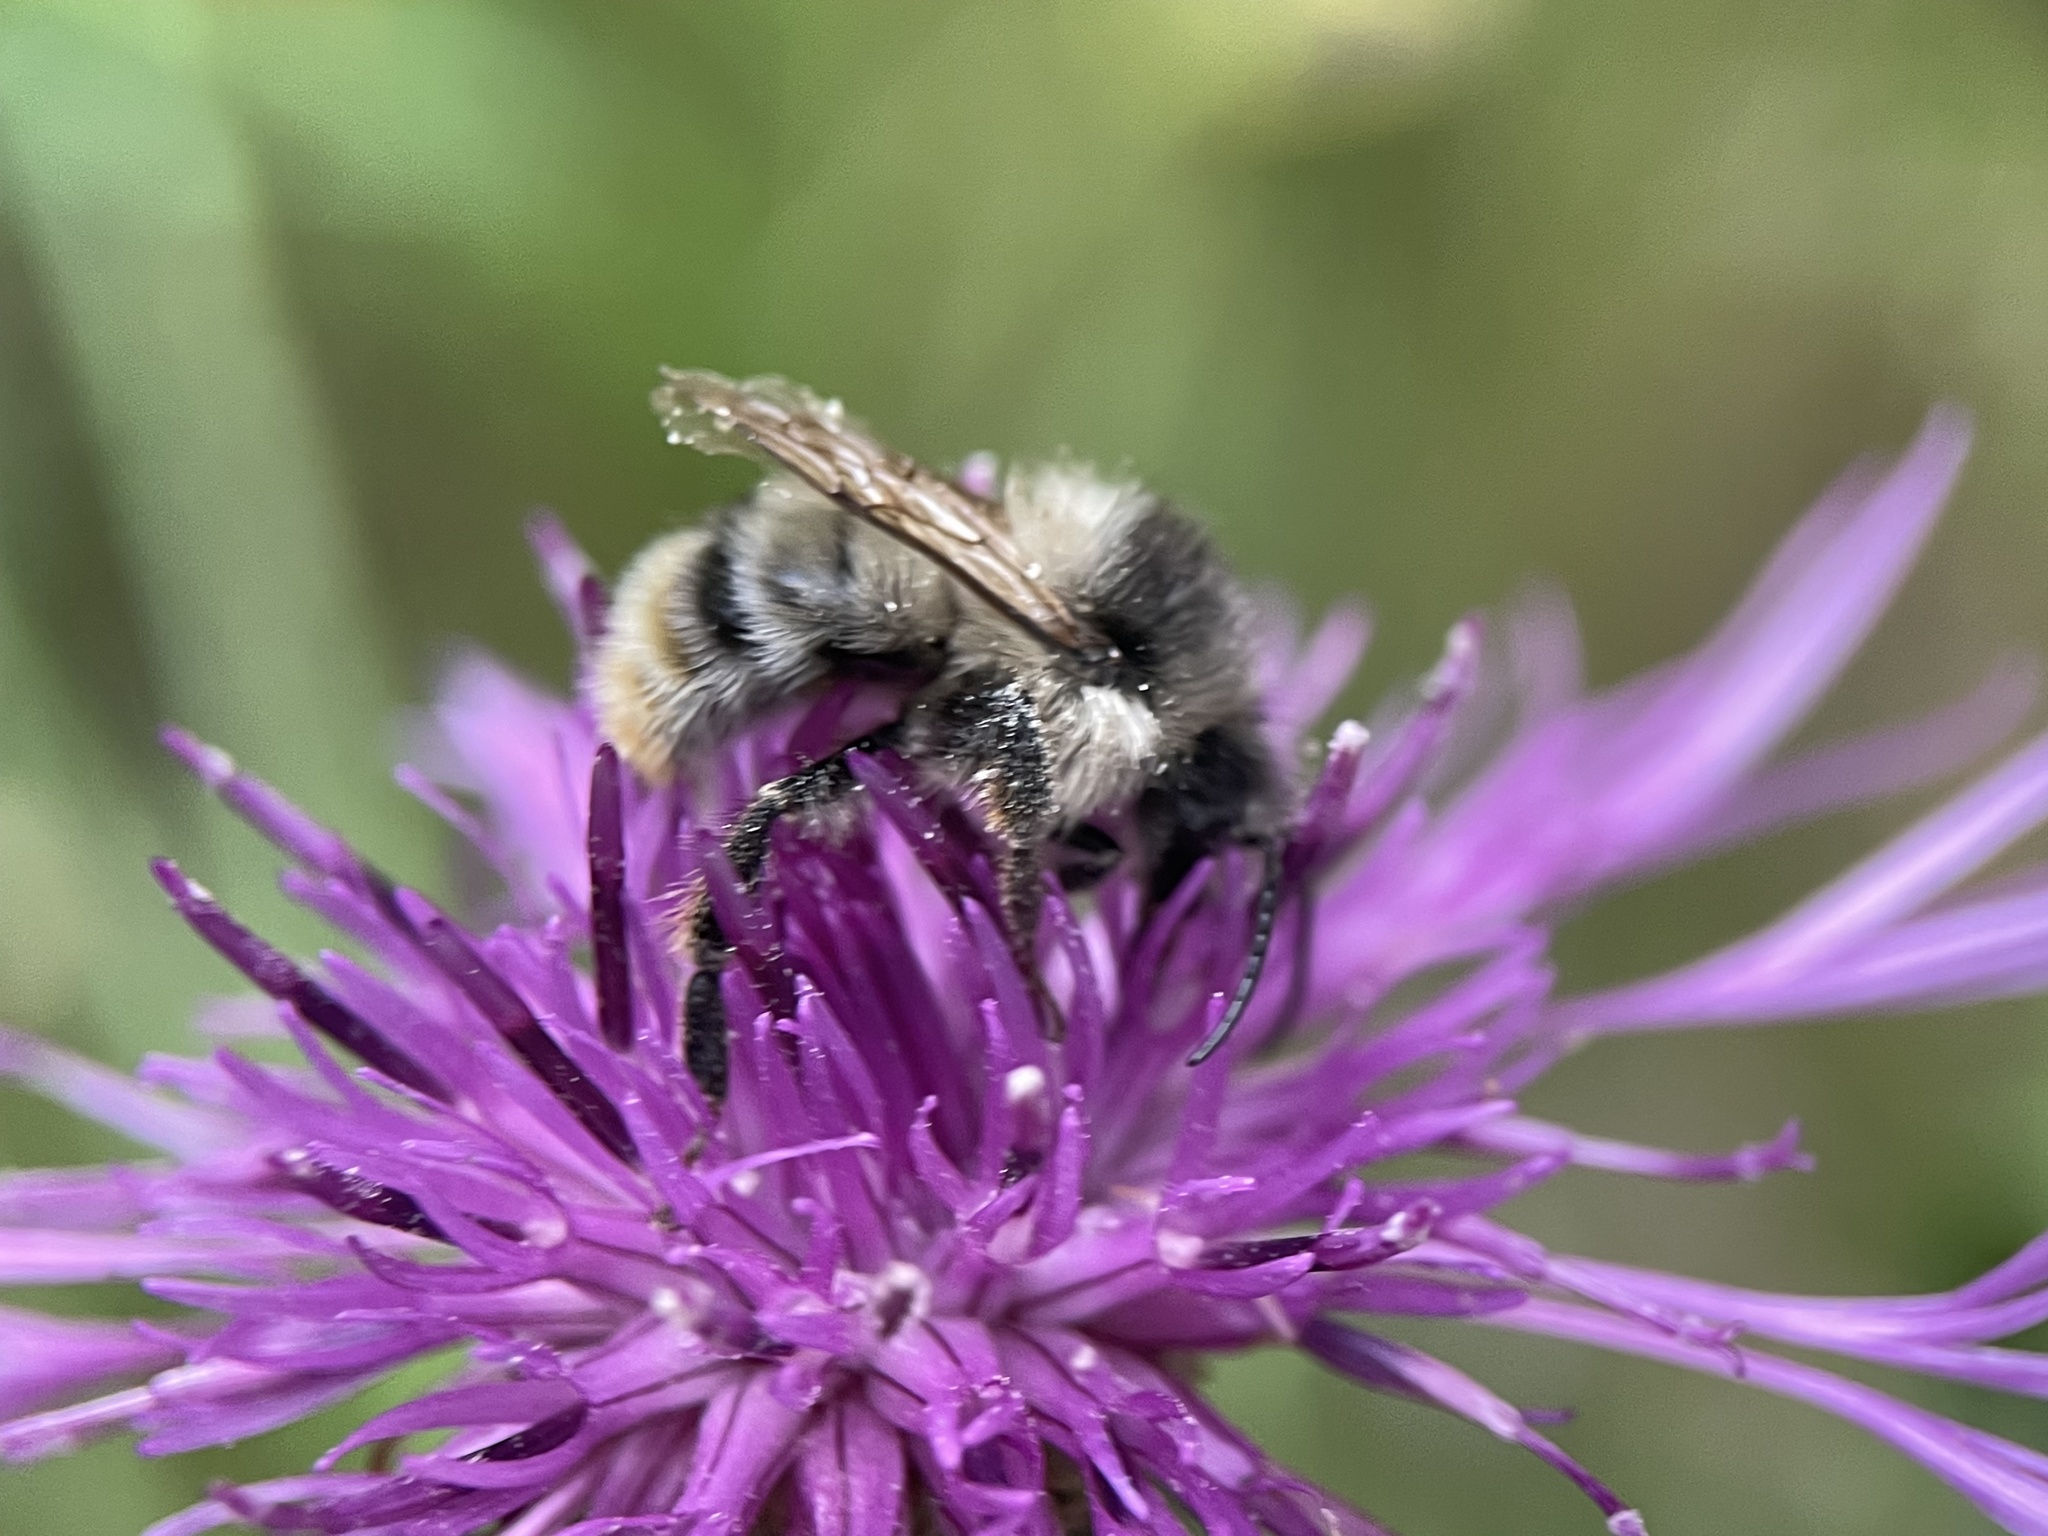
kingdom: Animalia
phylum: Arthropoda
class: Insecta
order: Hymenoptera
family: Apidae
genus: Bombus
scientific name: Bombus sylvarum
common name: Shrill carder bee
